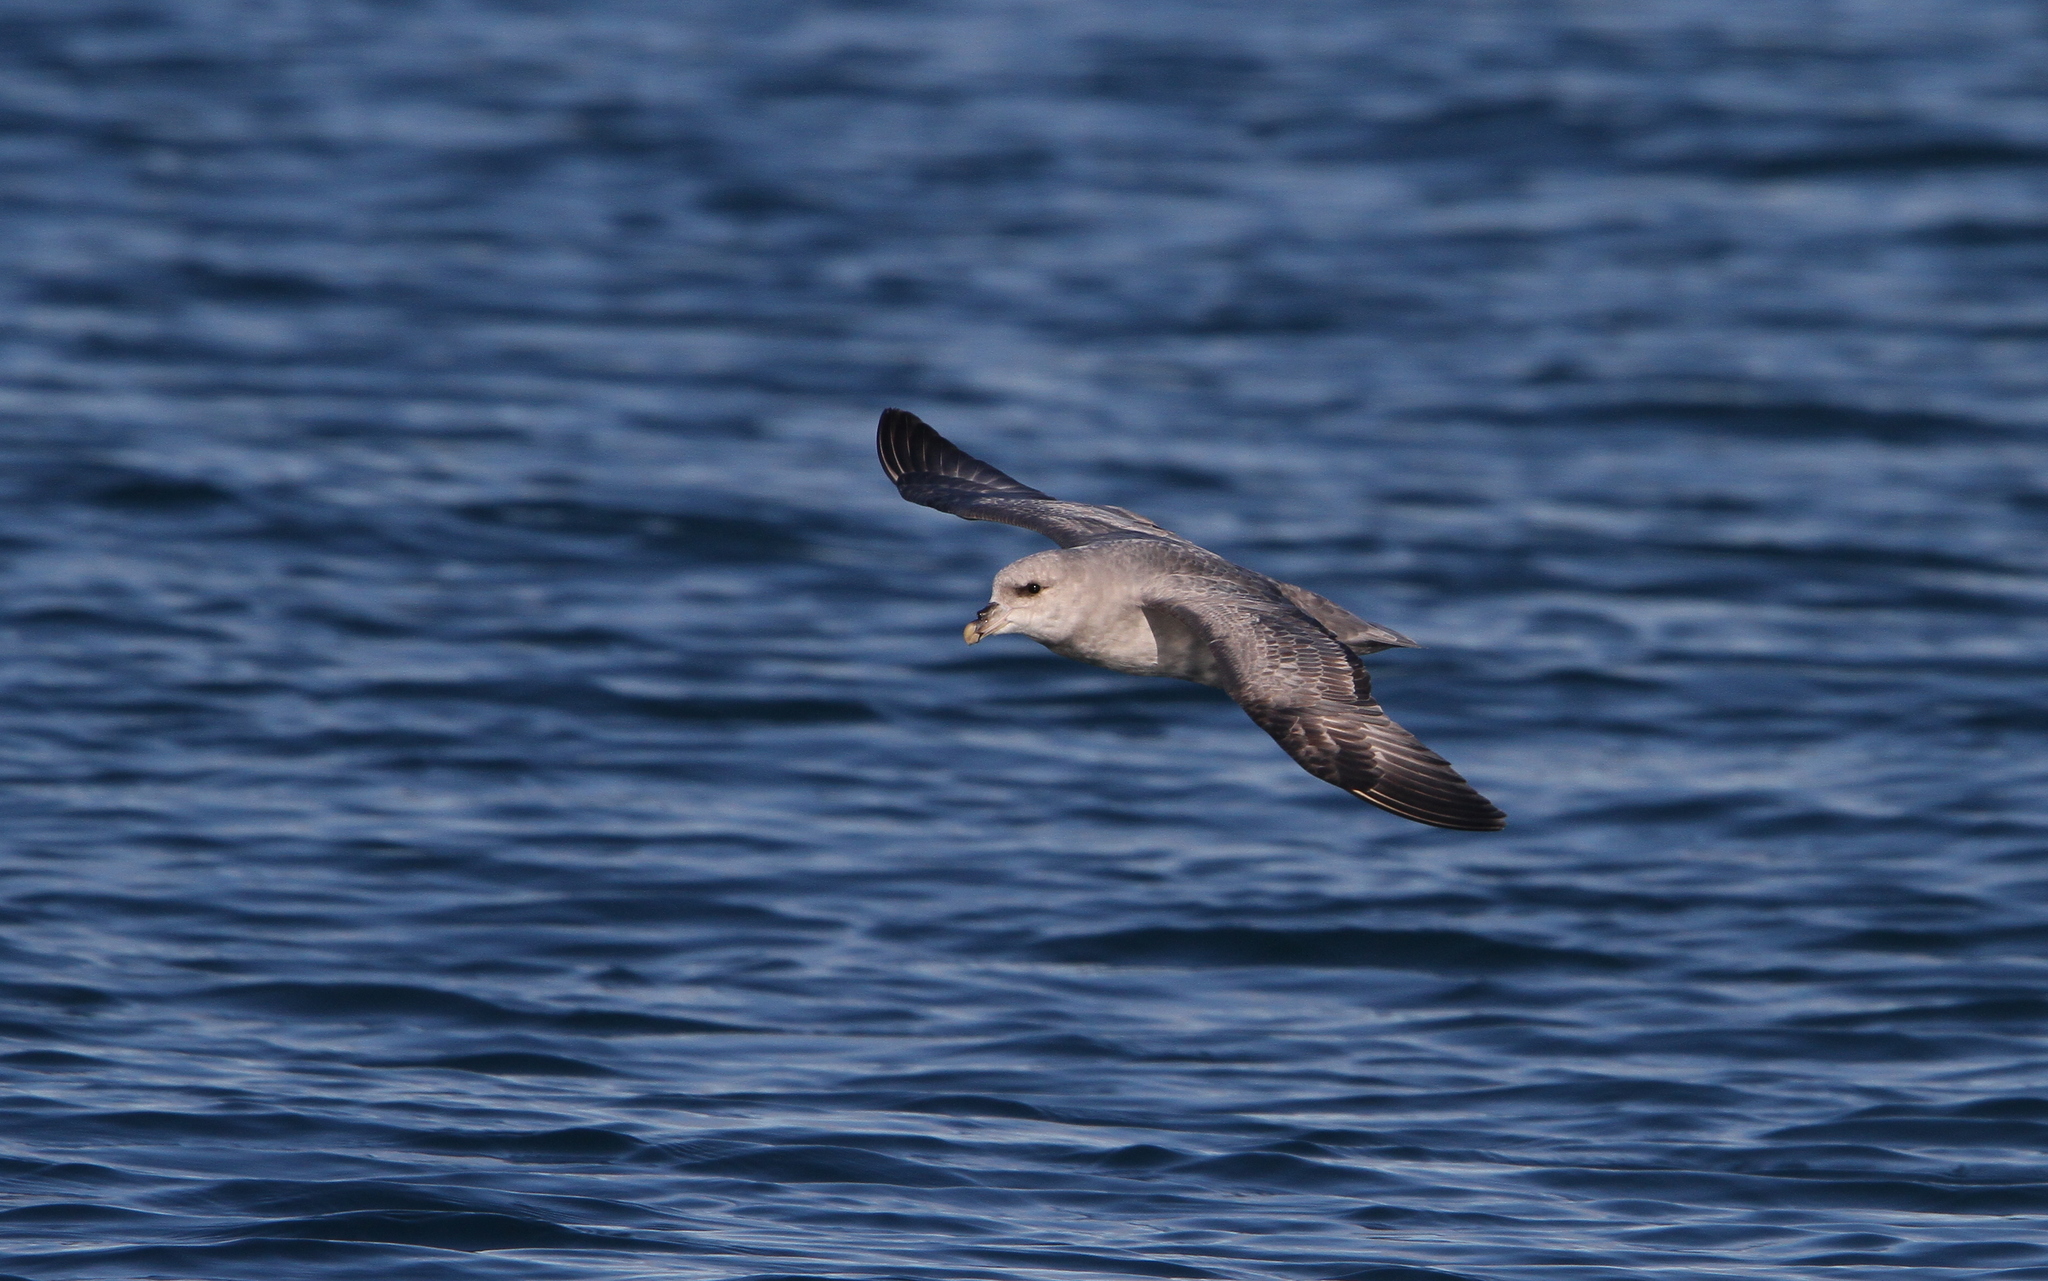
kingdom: Animalia
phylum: Chordata
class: Aves
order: Procellariiformes
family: Procellariidae
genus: Fulmarus
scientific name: Fulmarus glacialis
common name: Northern fulmar
